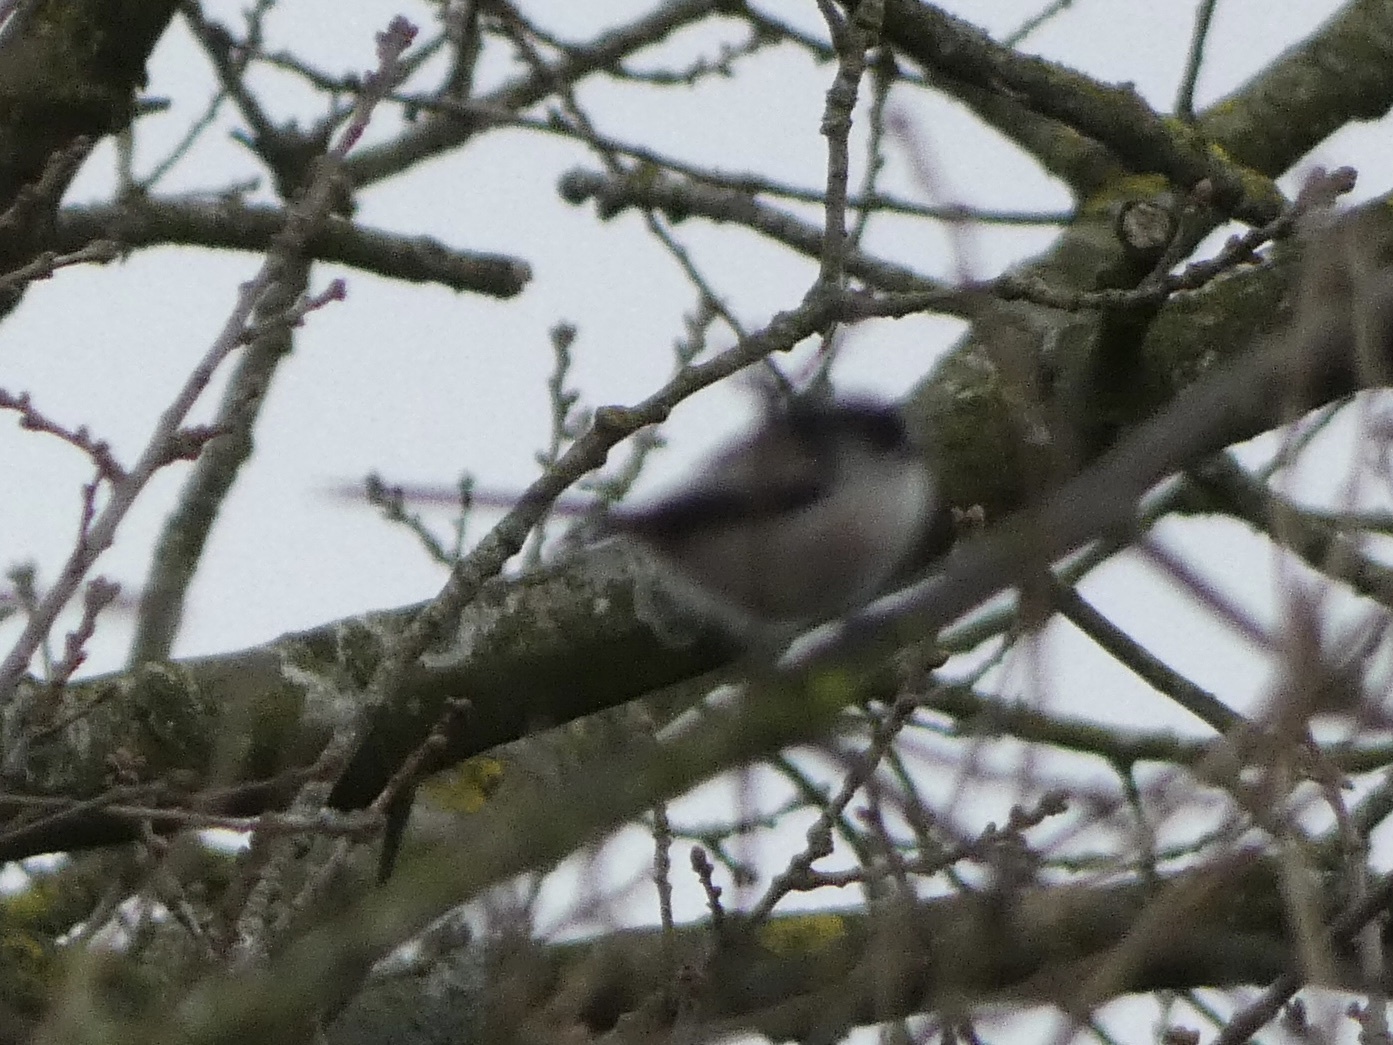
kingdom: Animalia
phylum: Chordata
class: Aves
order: Passeriformes
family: Aegithalidae
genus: Aegithalos
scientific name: Aegithalos caudatus
